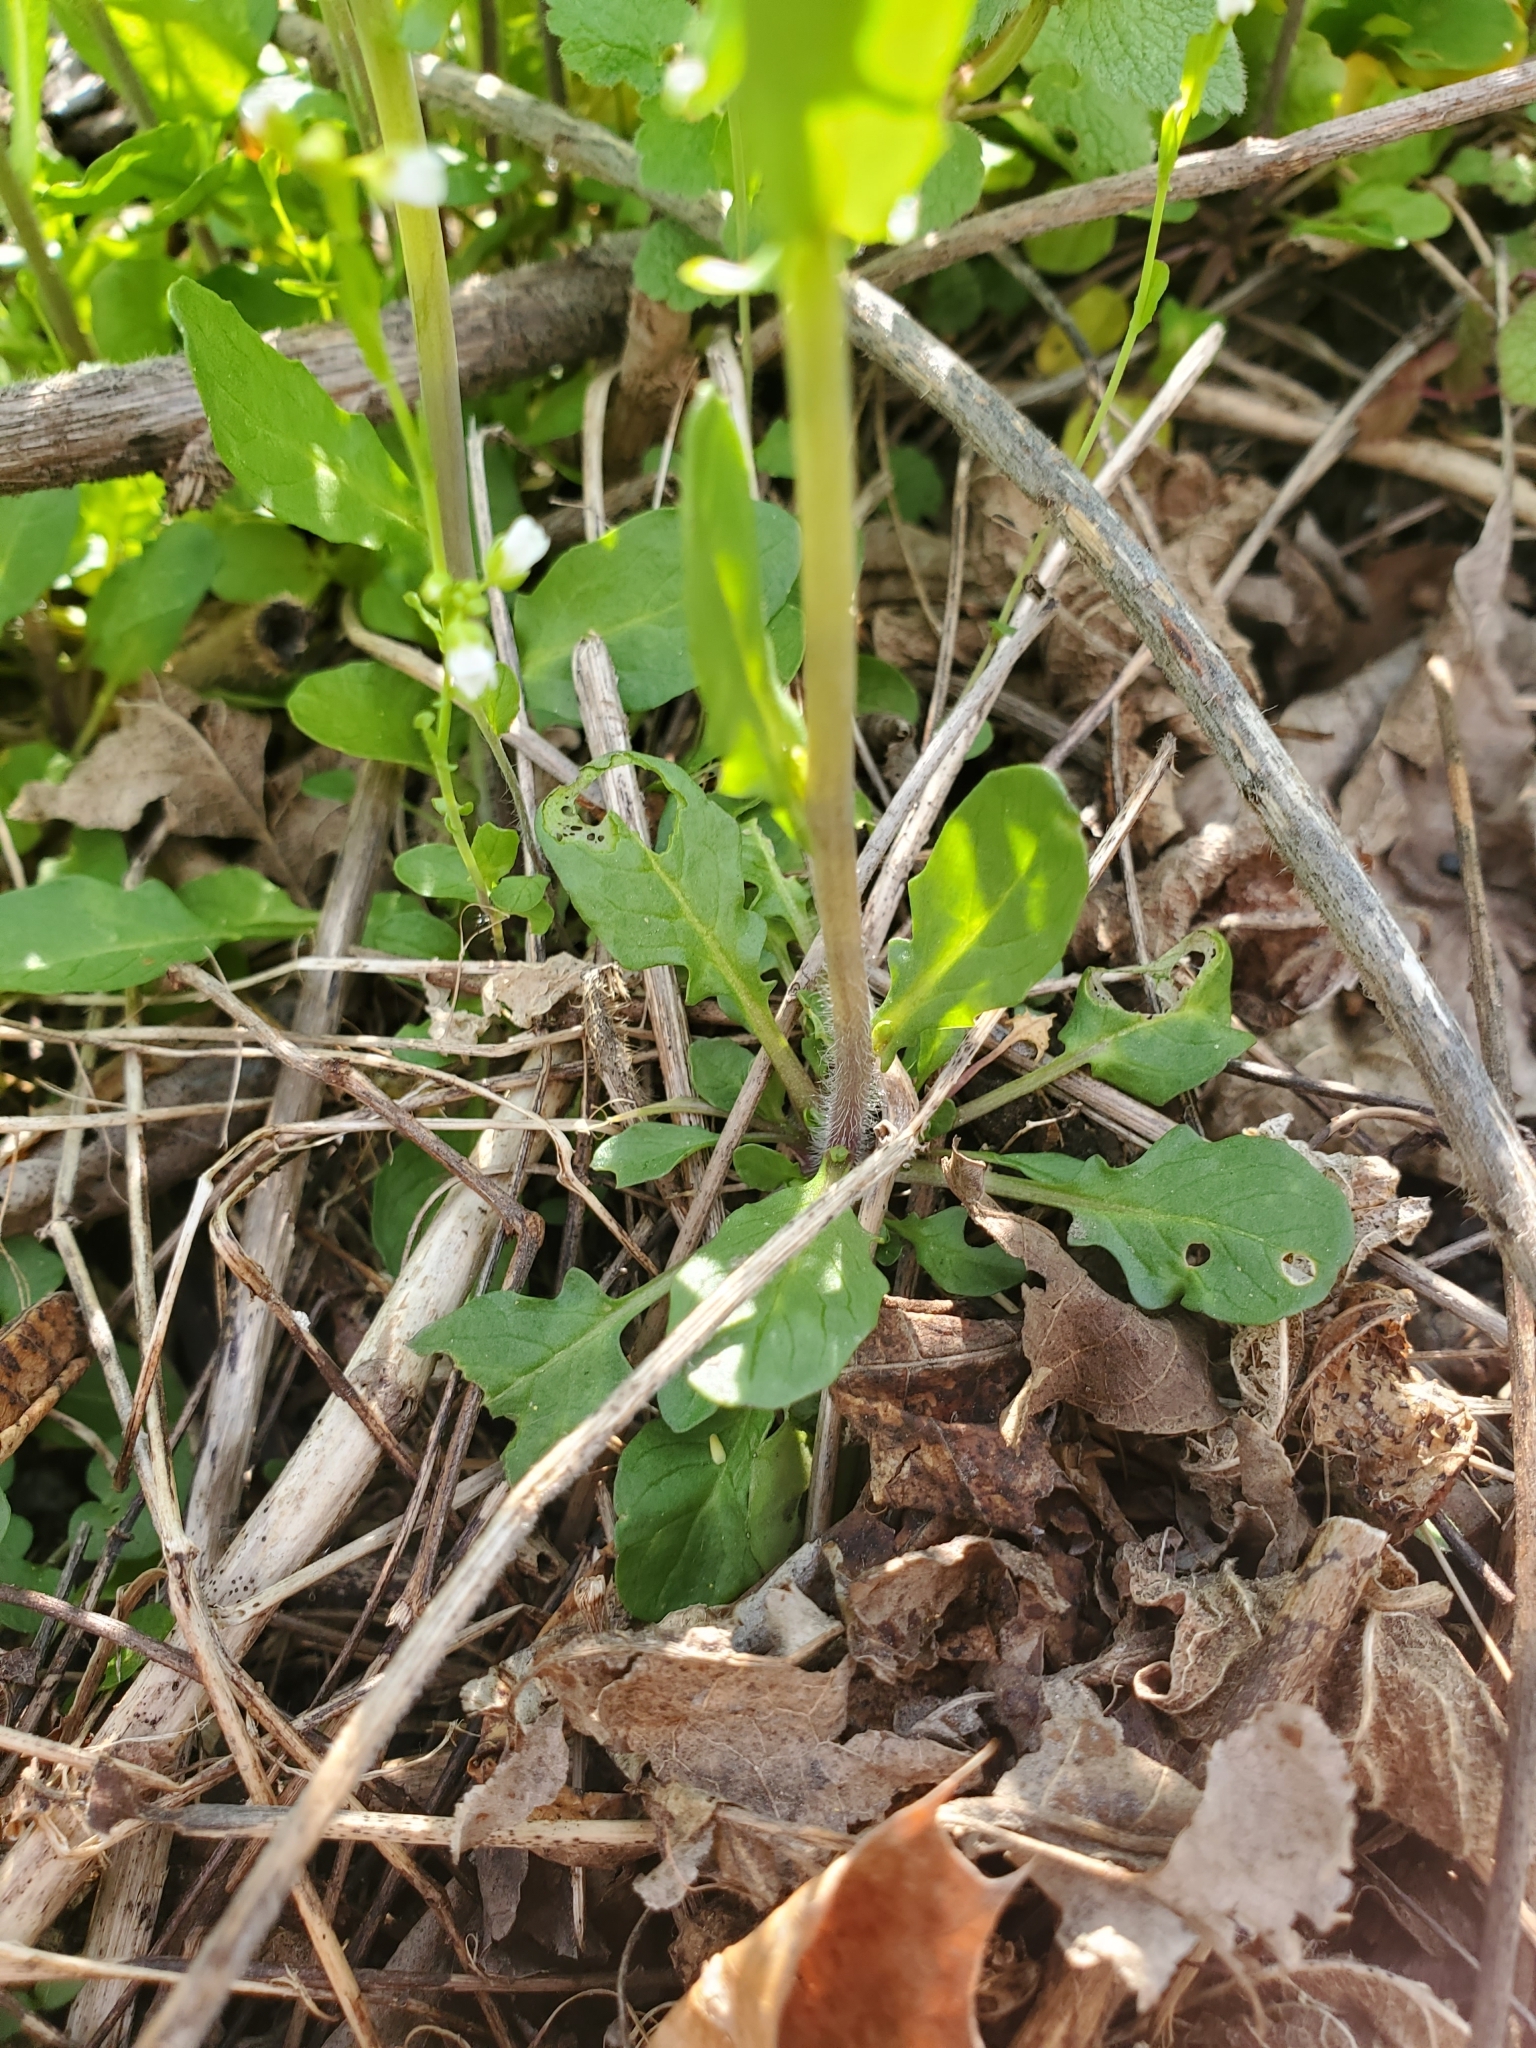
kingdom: Plantae
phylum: Tracheophyta
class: Magnoliopsida
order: Brassicales
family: Brassicaceae
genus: Mummenhoffia
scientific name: Mummenhoffia alliacea
